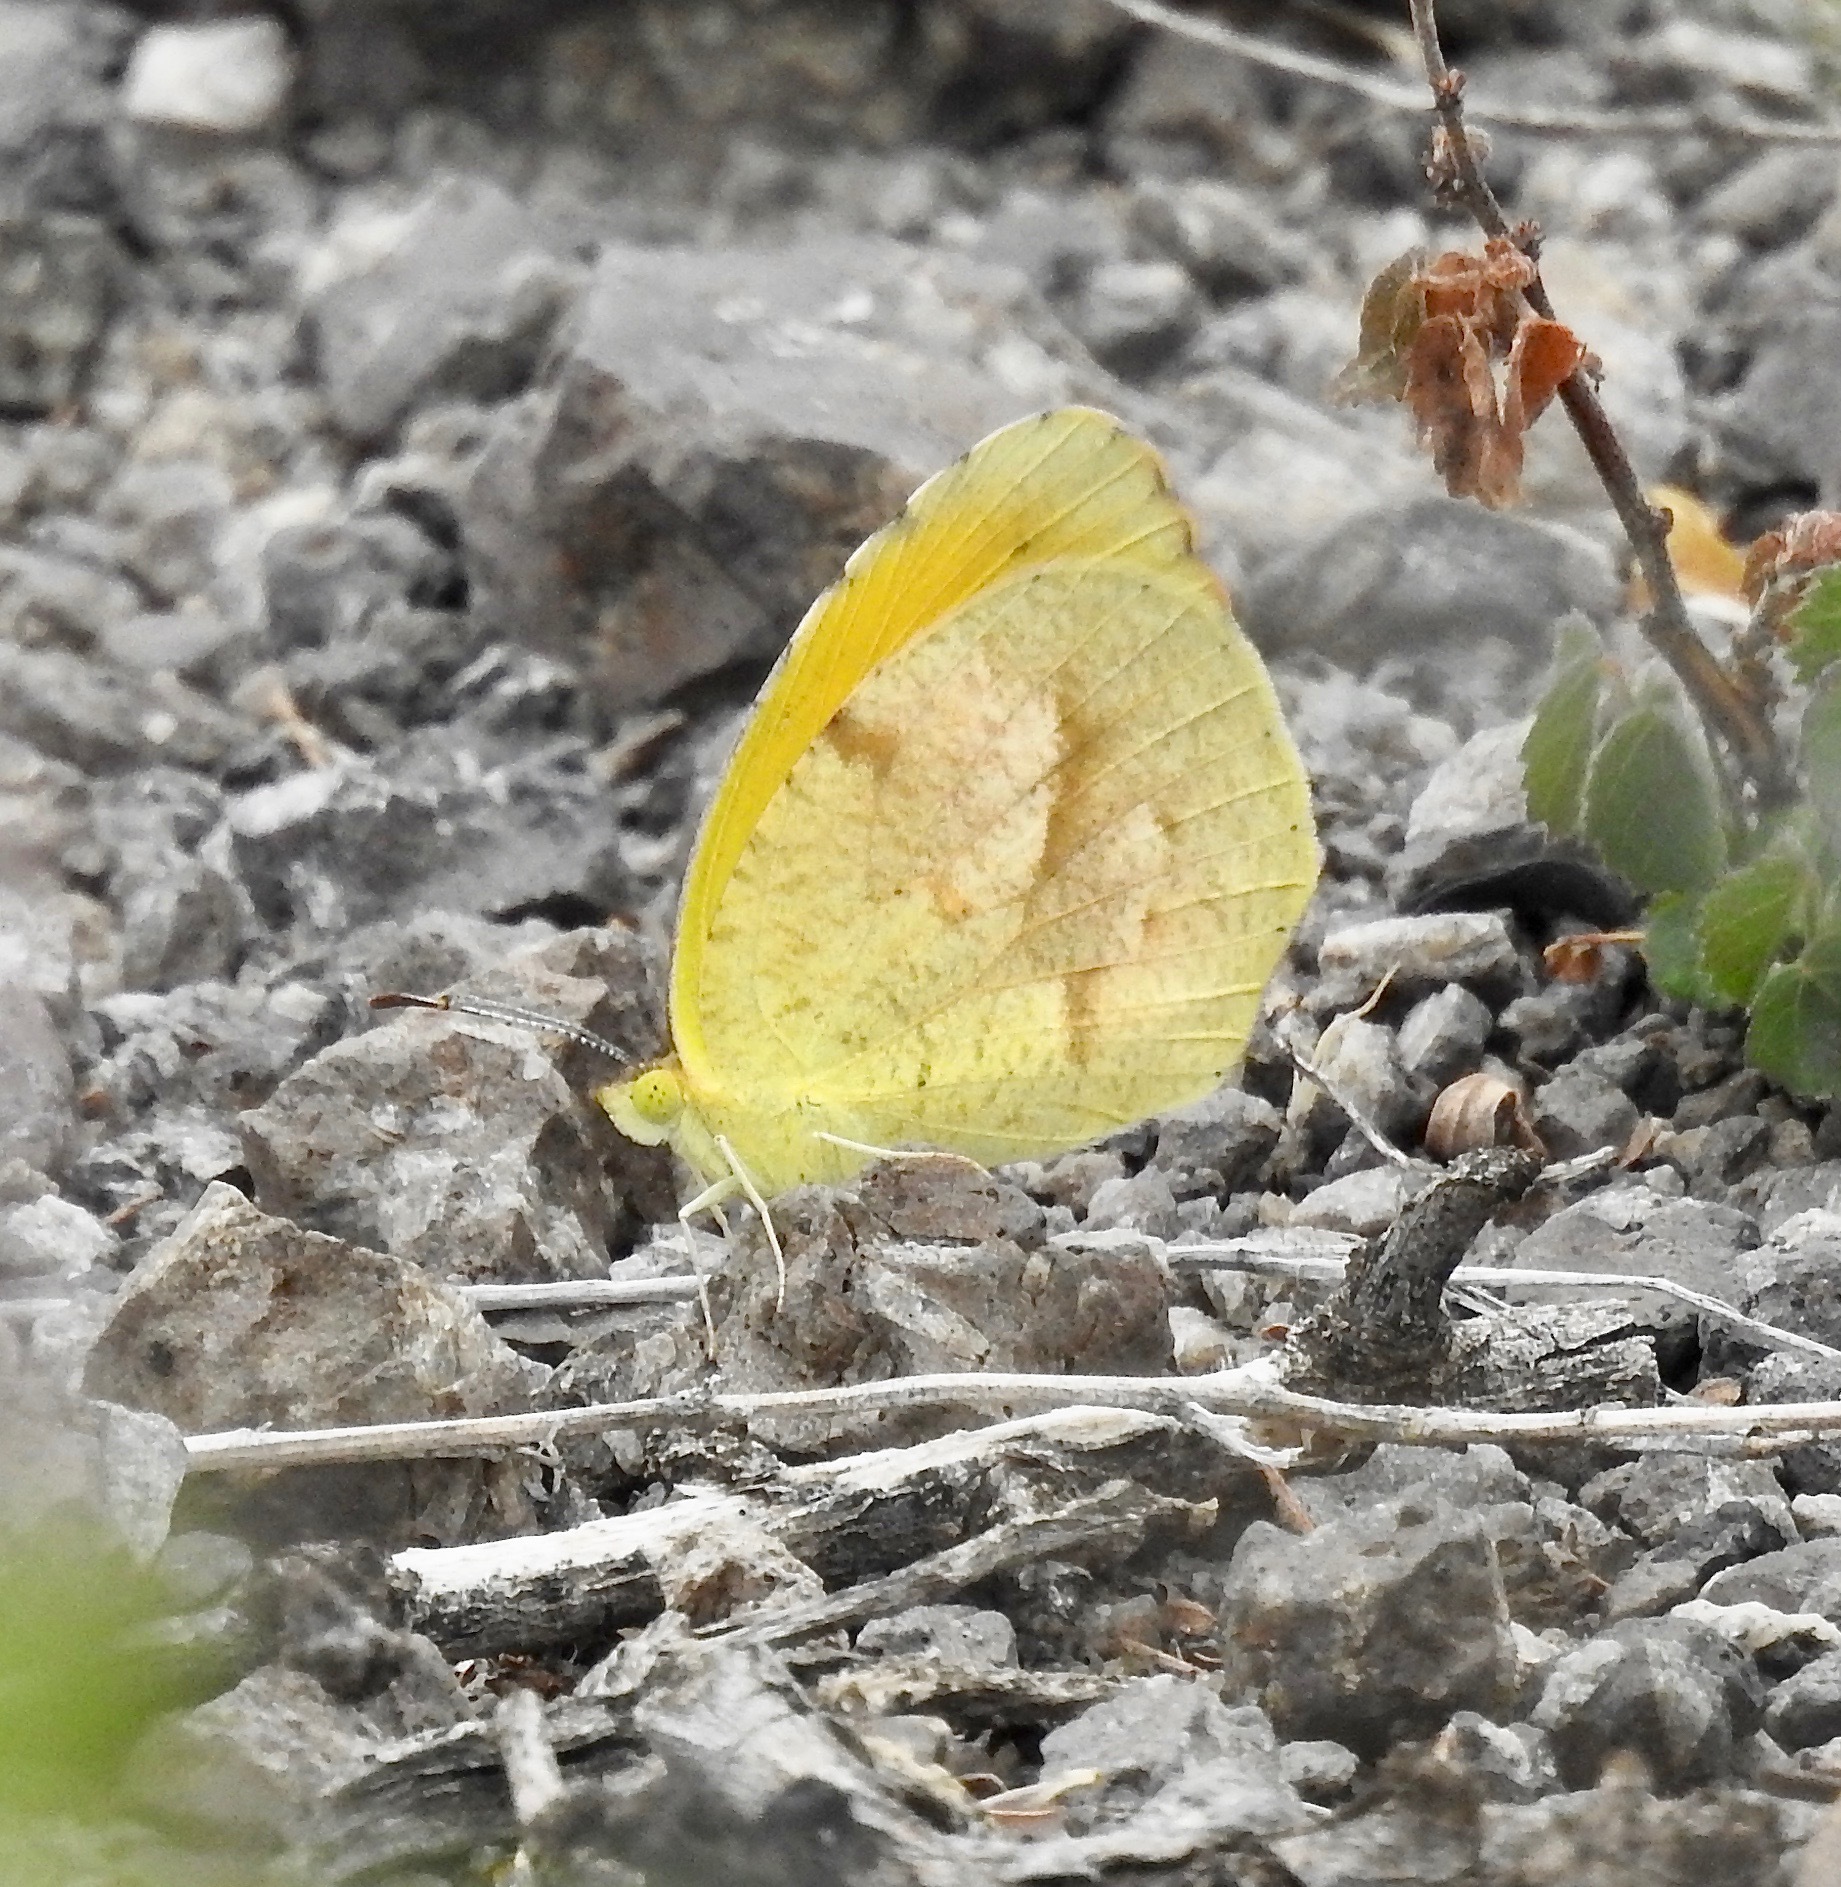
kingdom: Animalia
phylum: Arthropoda
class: Insecta
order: Lepidoptera
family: Pieridae
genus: Abaeis
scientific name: Abaeis nicippe
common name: Sleepy orange
